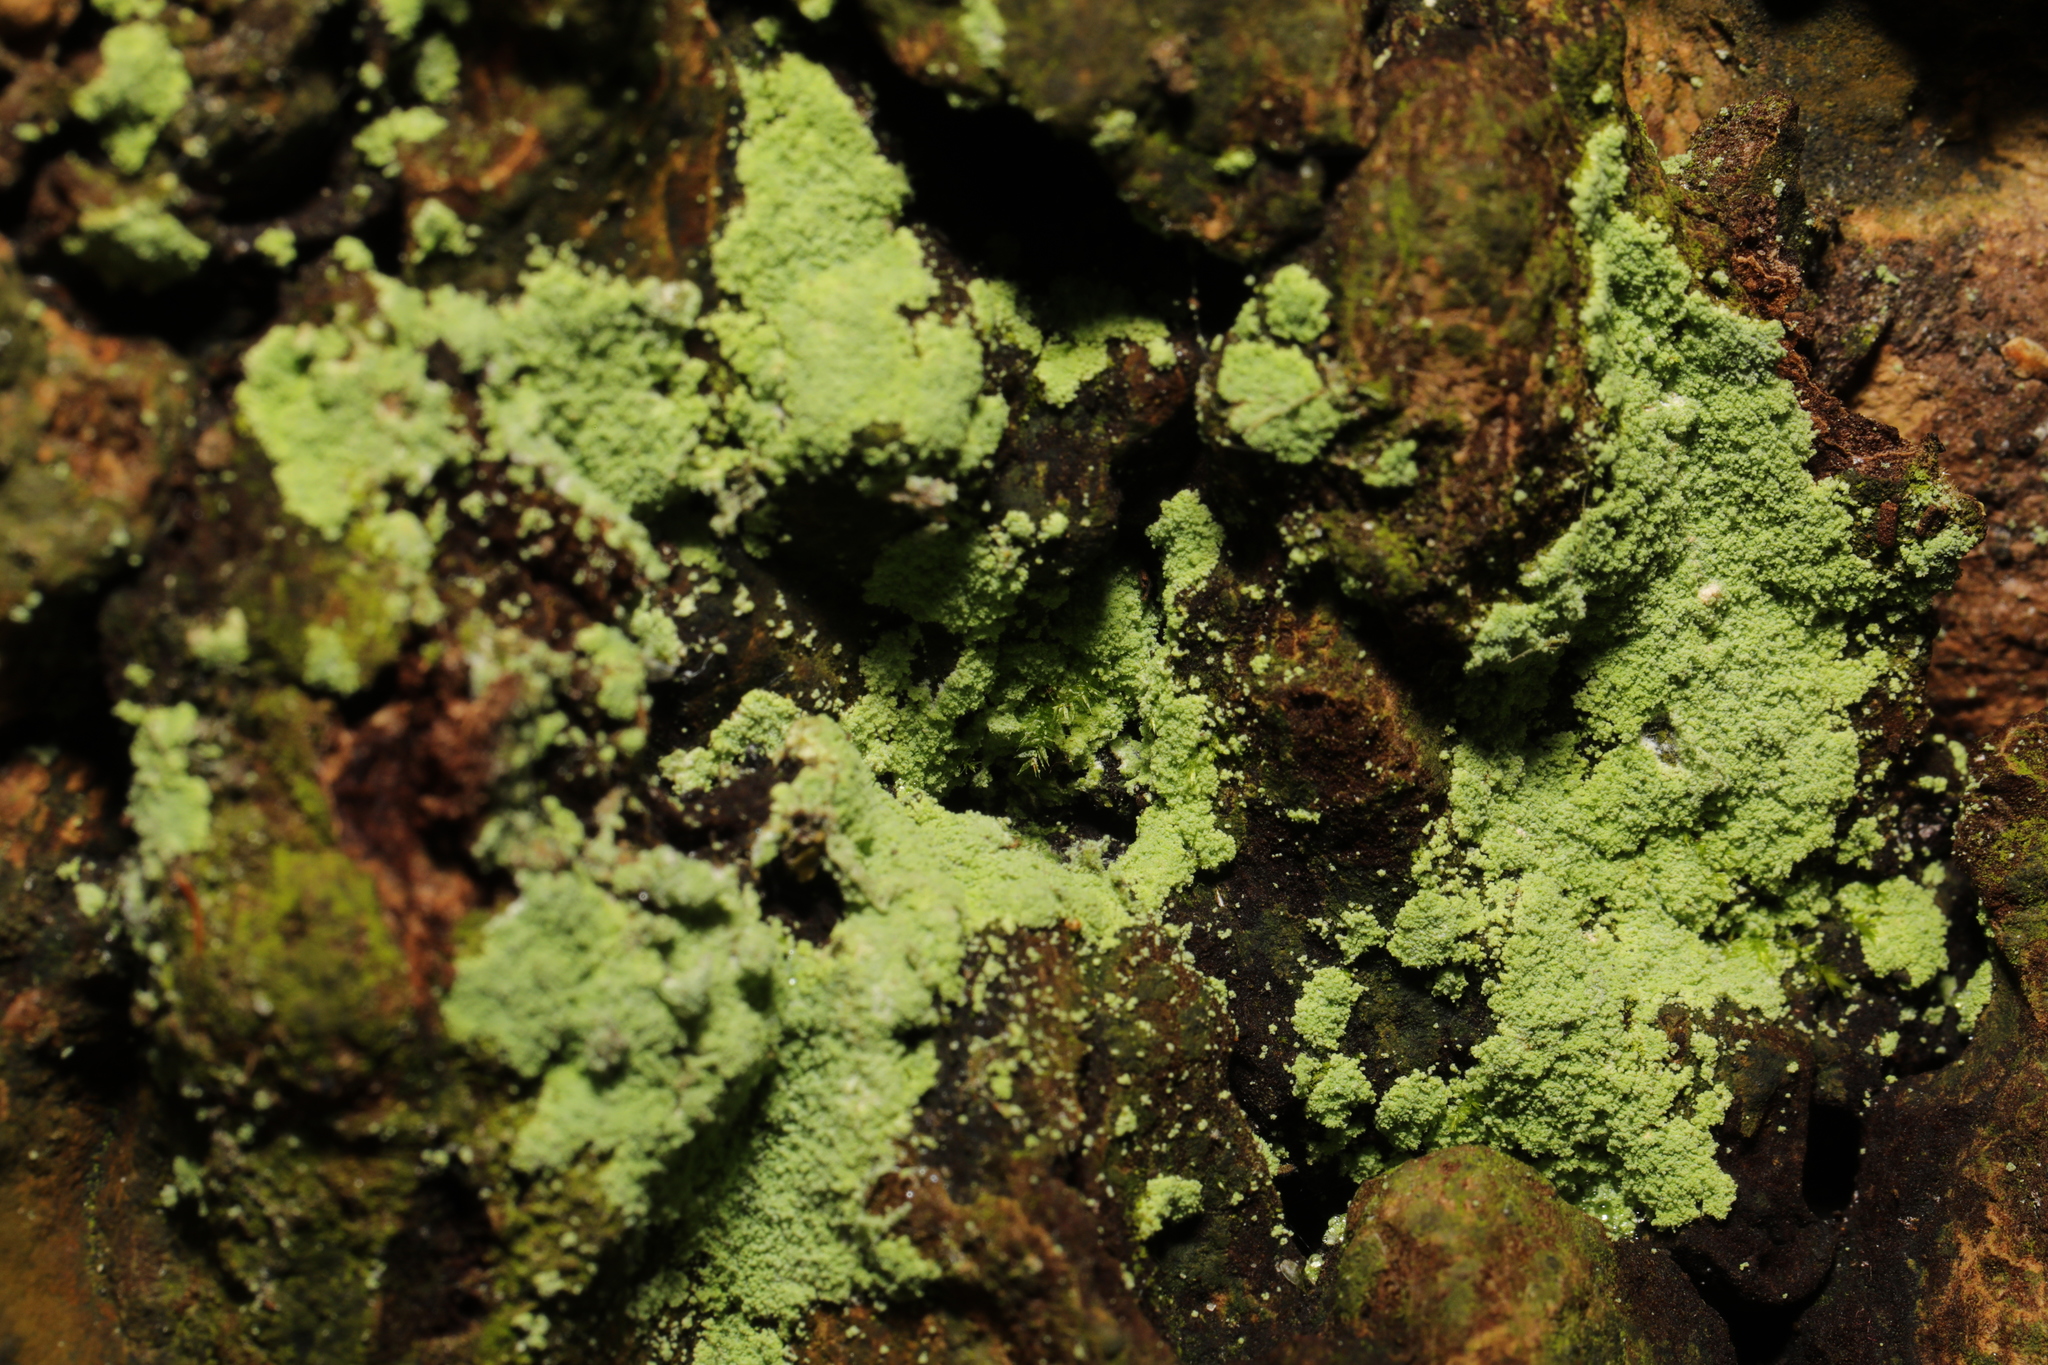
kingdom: Fungi
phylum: Ascomycota
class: Lecanoromycetes
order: Lecanorales
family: Stereocaulaceae
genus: Lepraria
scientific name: Lepraria
